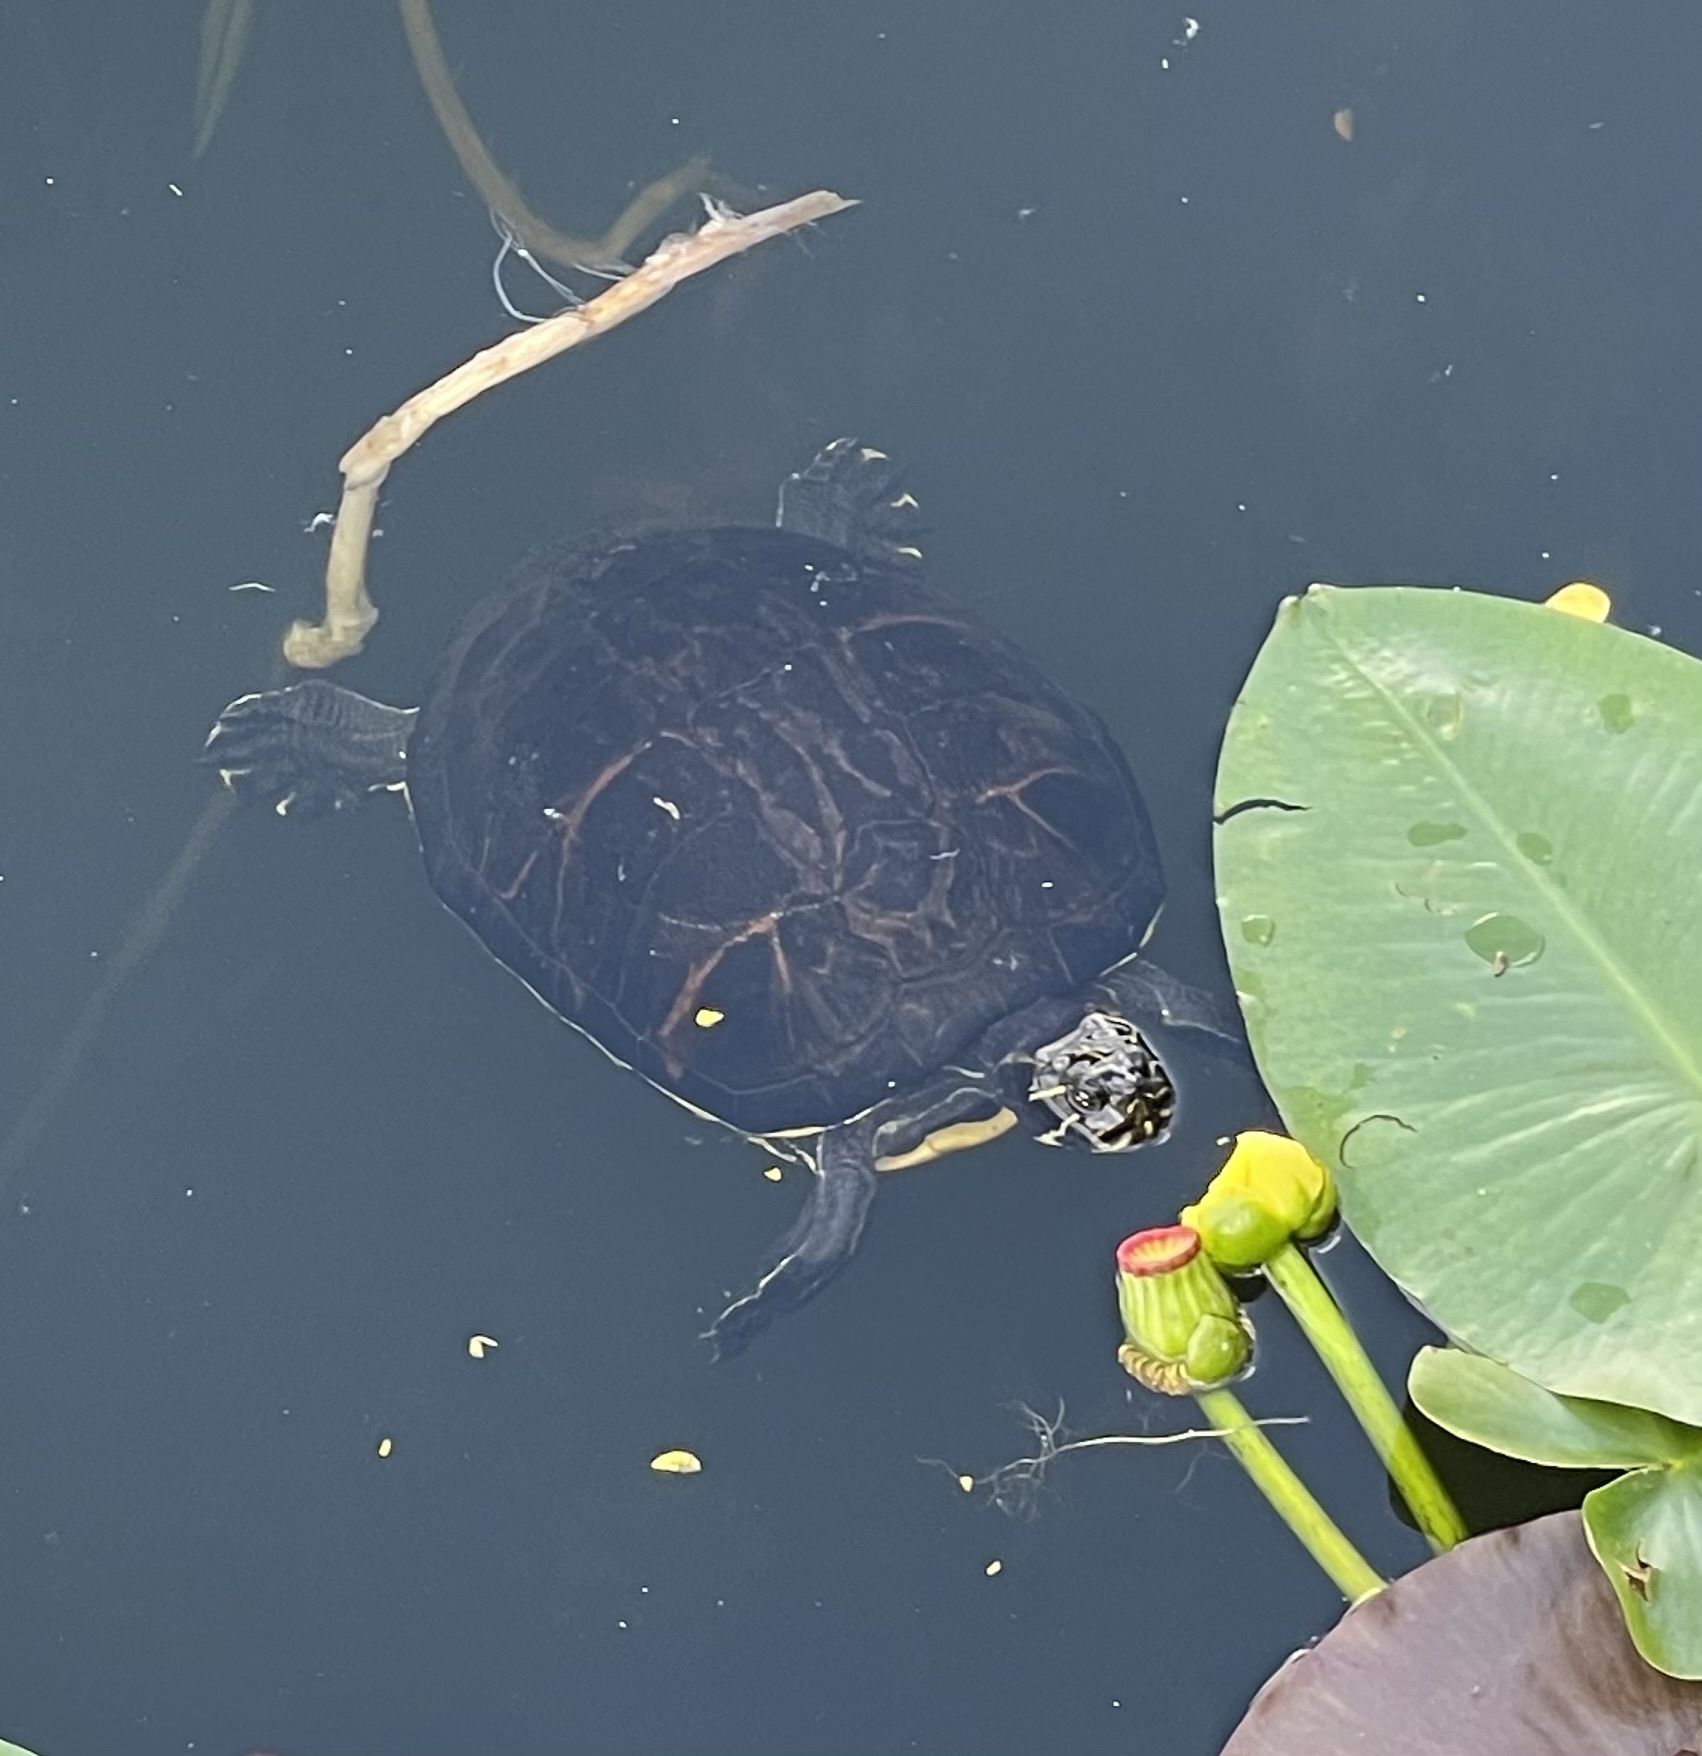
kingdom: Animalia
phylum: Chordata
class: Testudines
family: Emydidae
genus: Pseudemys
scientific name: Pseudemys nelsoni
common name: Florida red-bellied turtle
